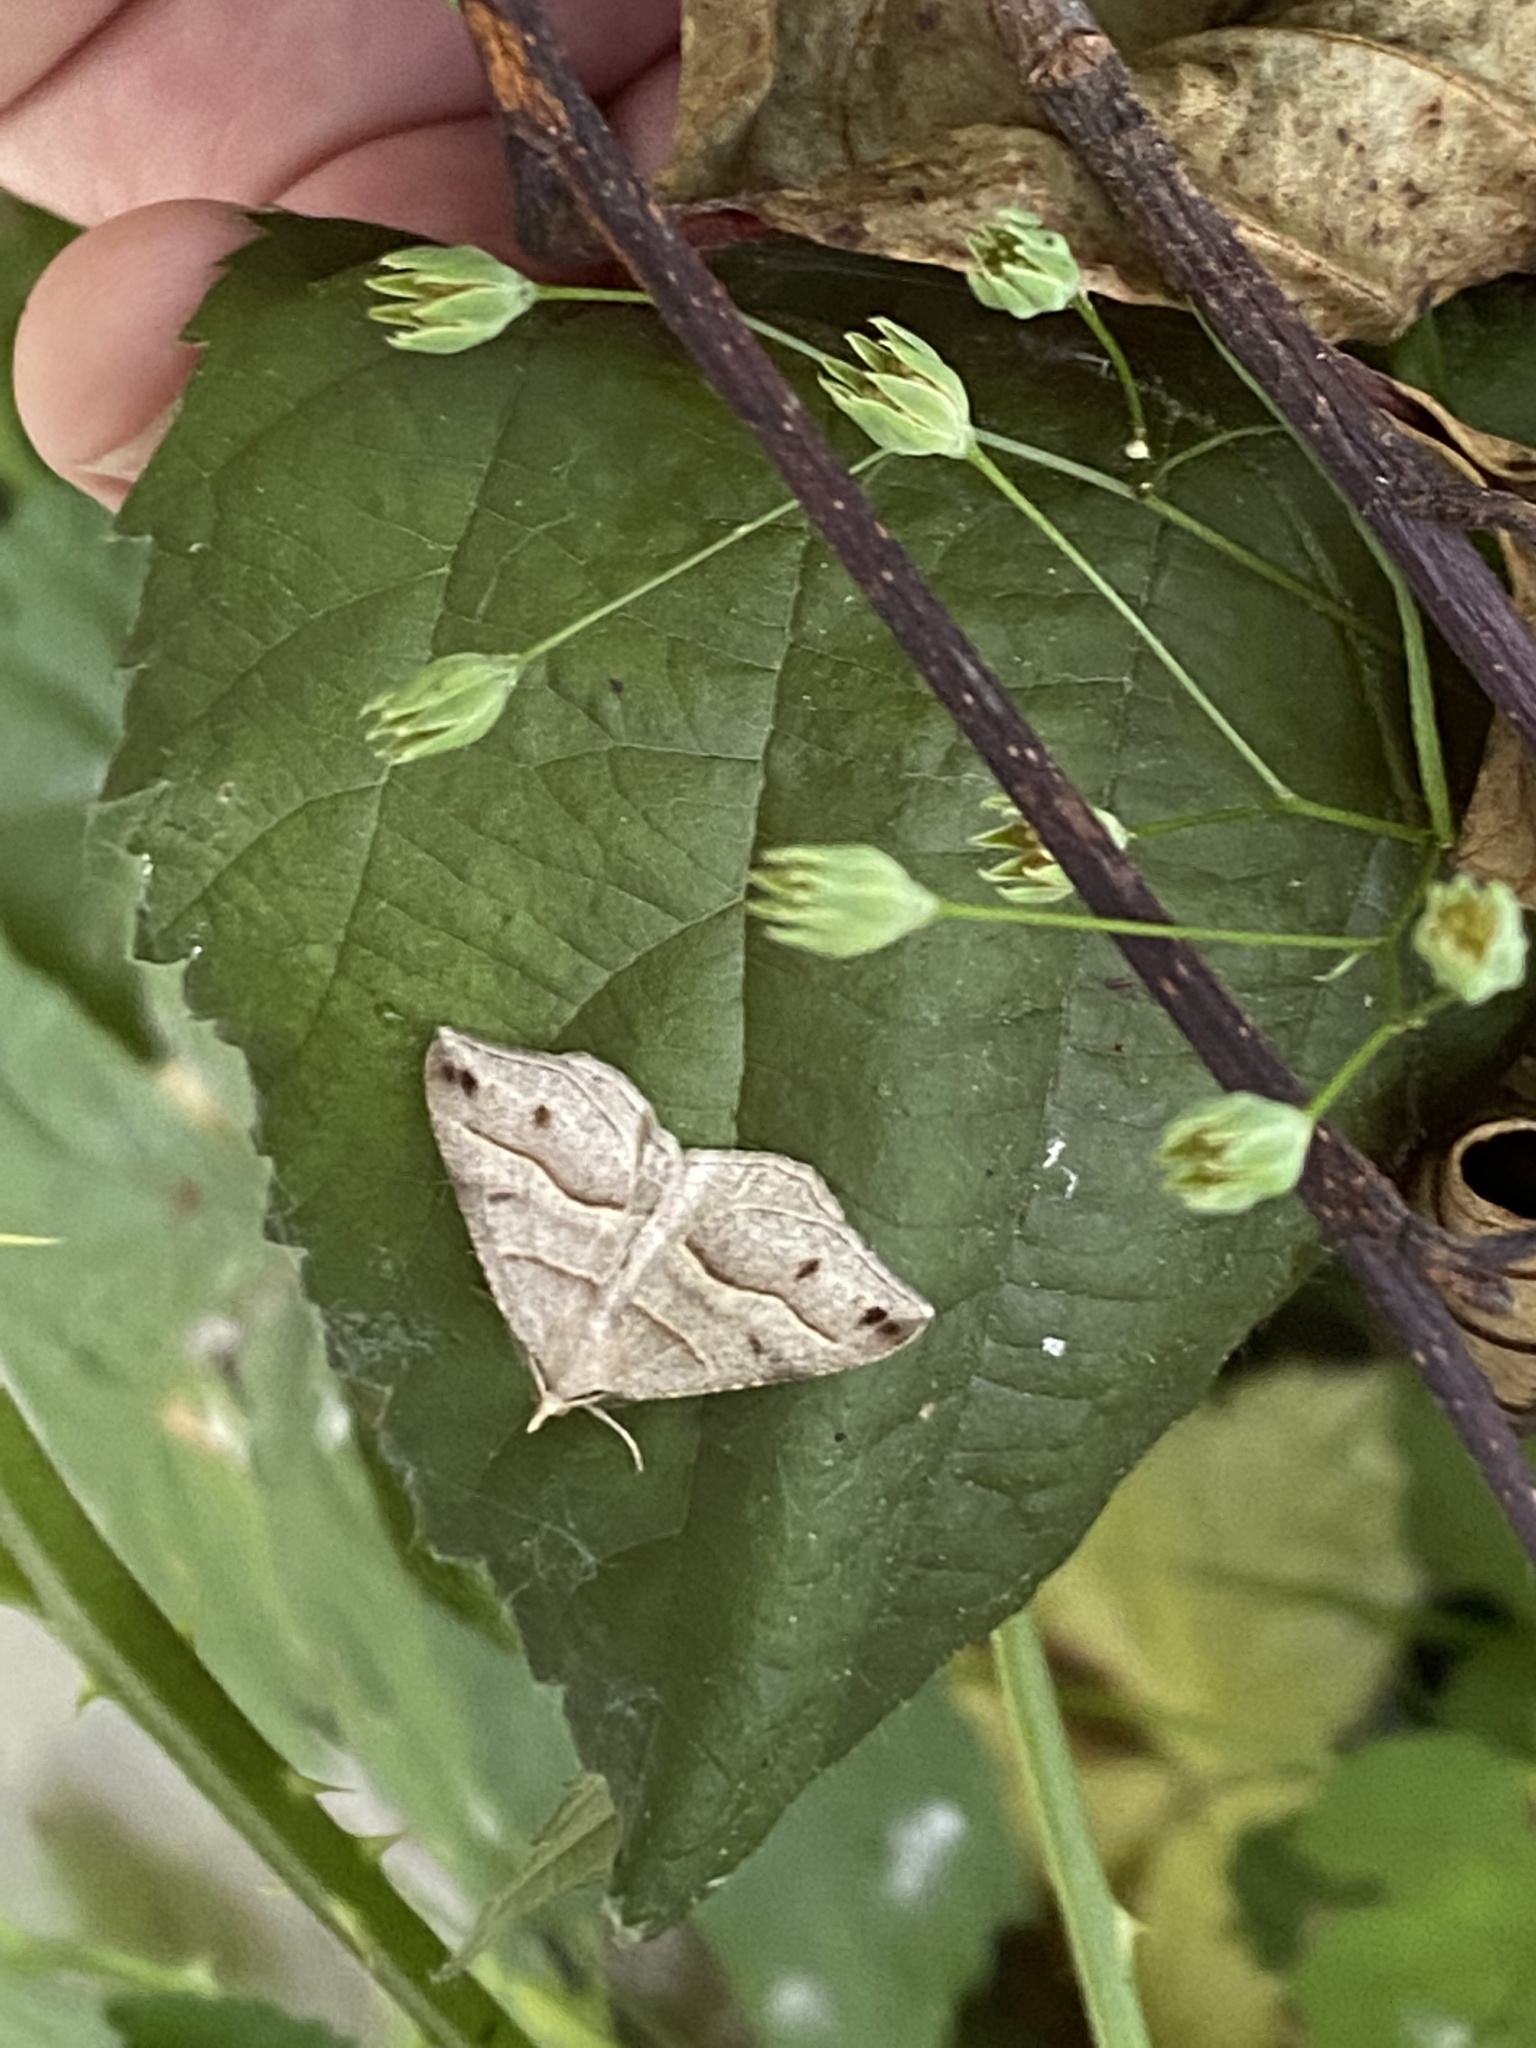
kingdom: Animalia
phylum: Arthropoda
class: Insecta
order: Lepidoptera
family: Geometridae
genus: Macaria
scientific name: Macaria lorquinaria
